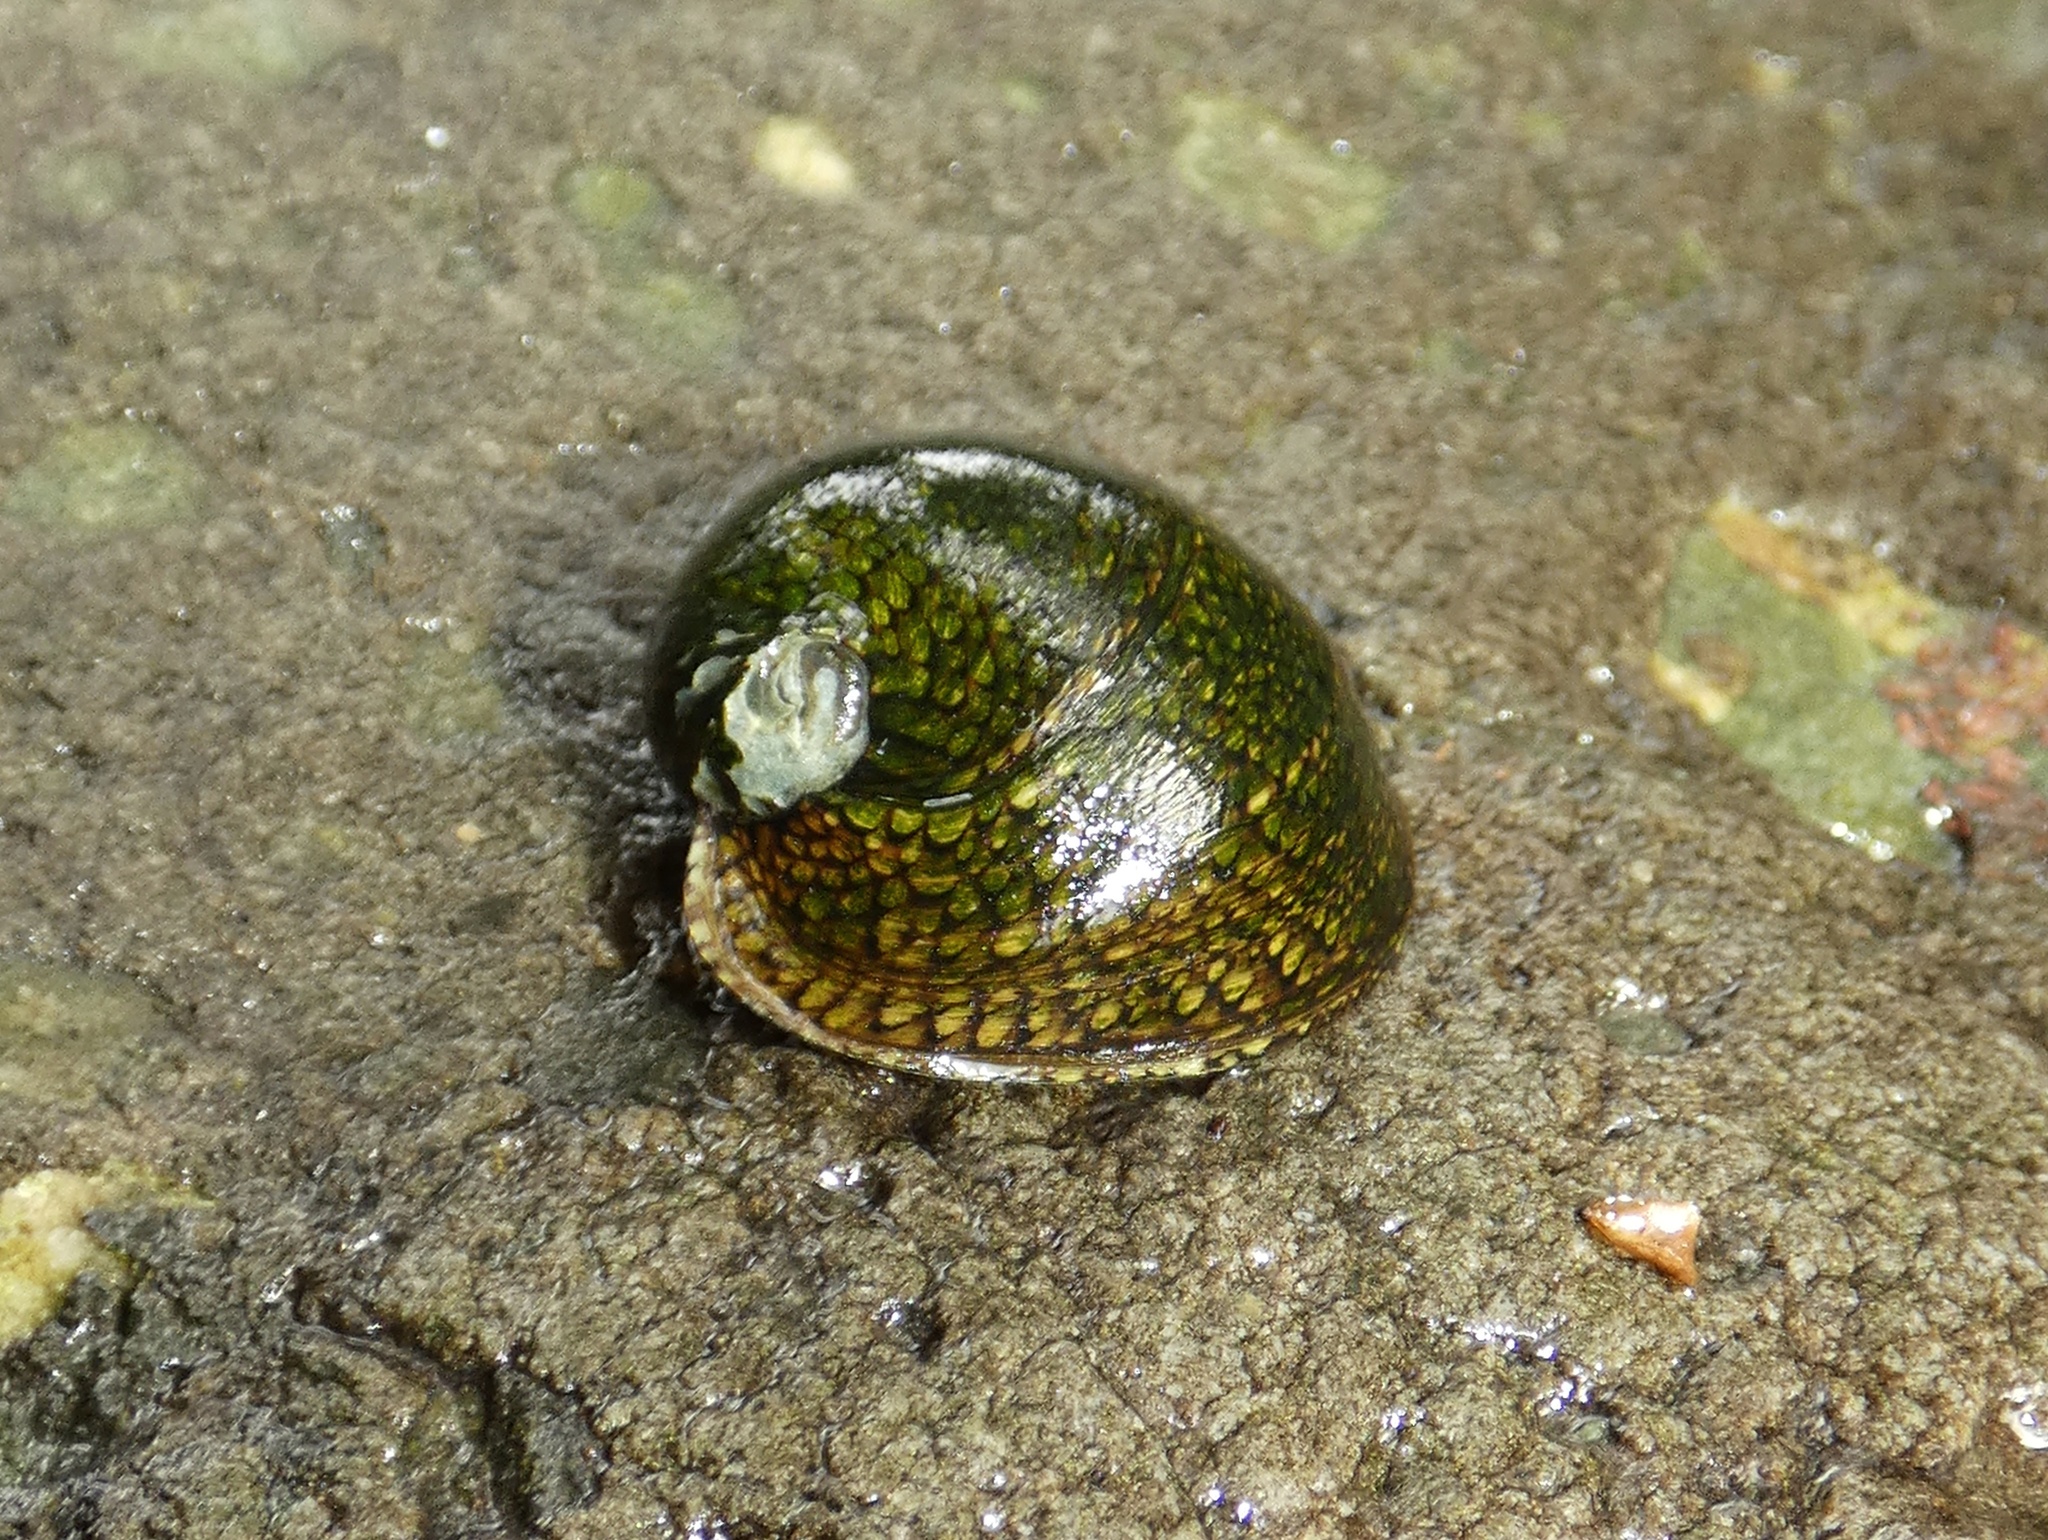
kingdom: Animalia
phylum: Mollusca
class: Gastropoda
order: Cycloneritida
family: Neritidae
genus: Clypeolum
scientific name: Clypeolum latissimum
